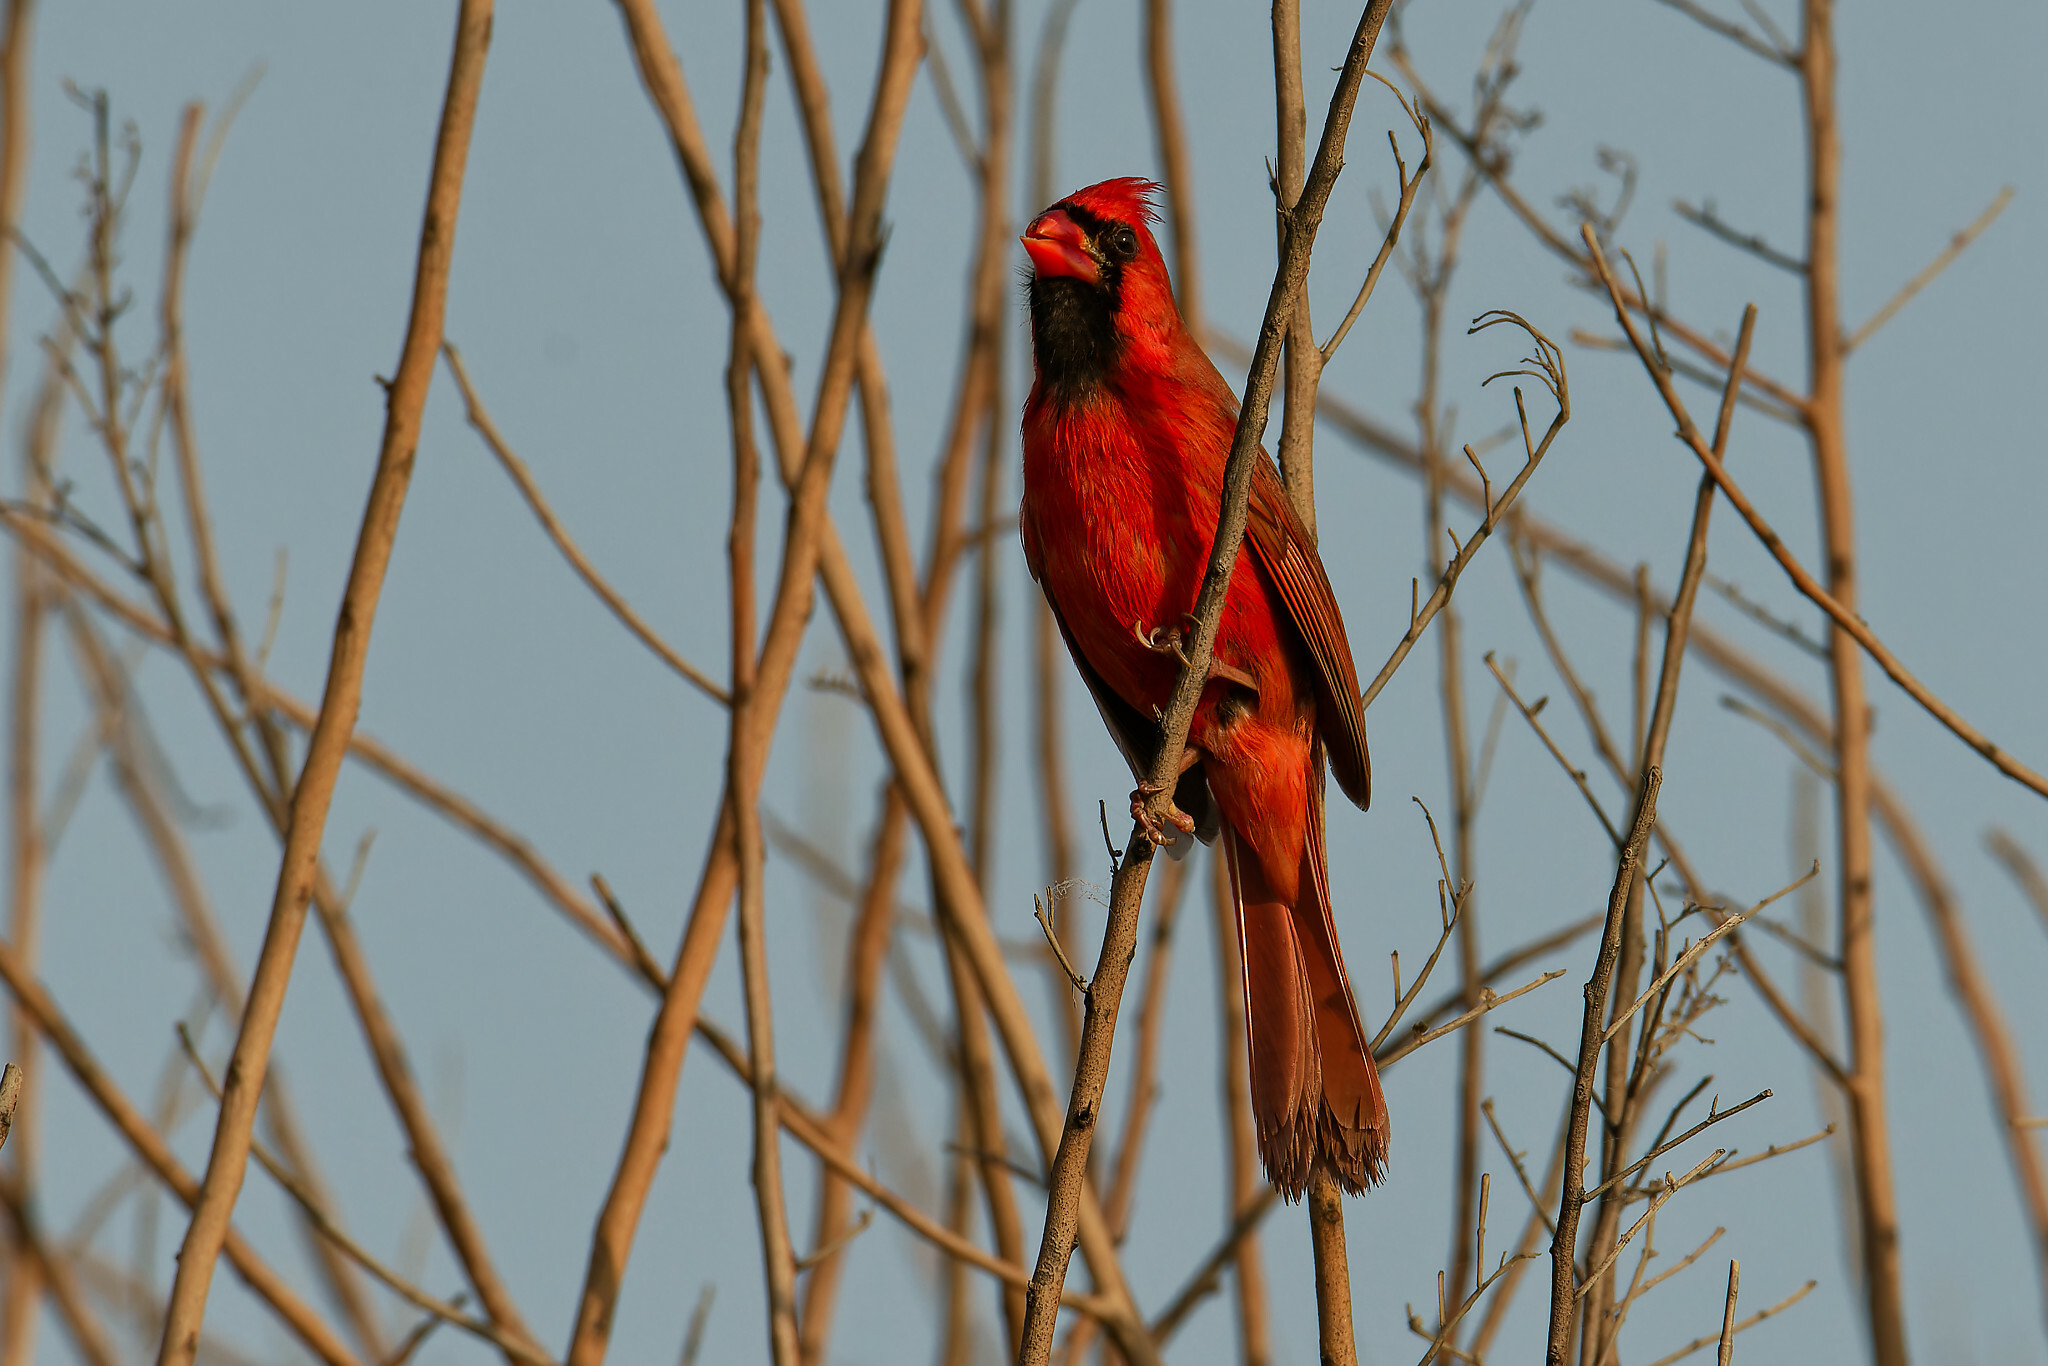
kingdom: Animalia
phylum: Chordata
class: Aves
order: Passeriformes
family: Cardinalidae
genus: Cardinalis
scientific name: Cardinalis cardinalis
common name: Northern cardinal
